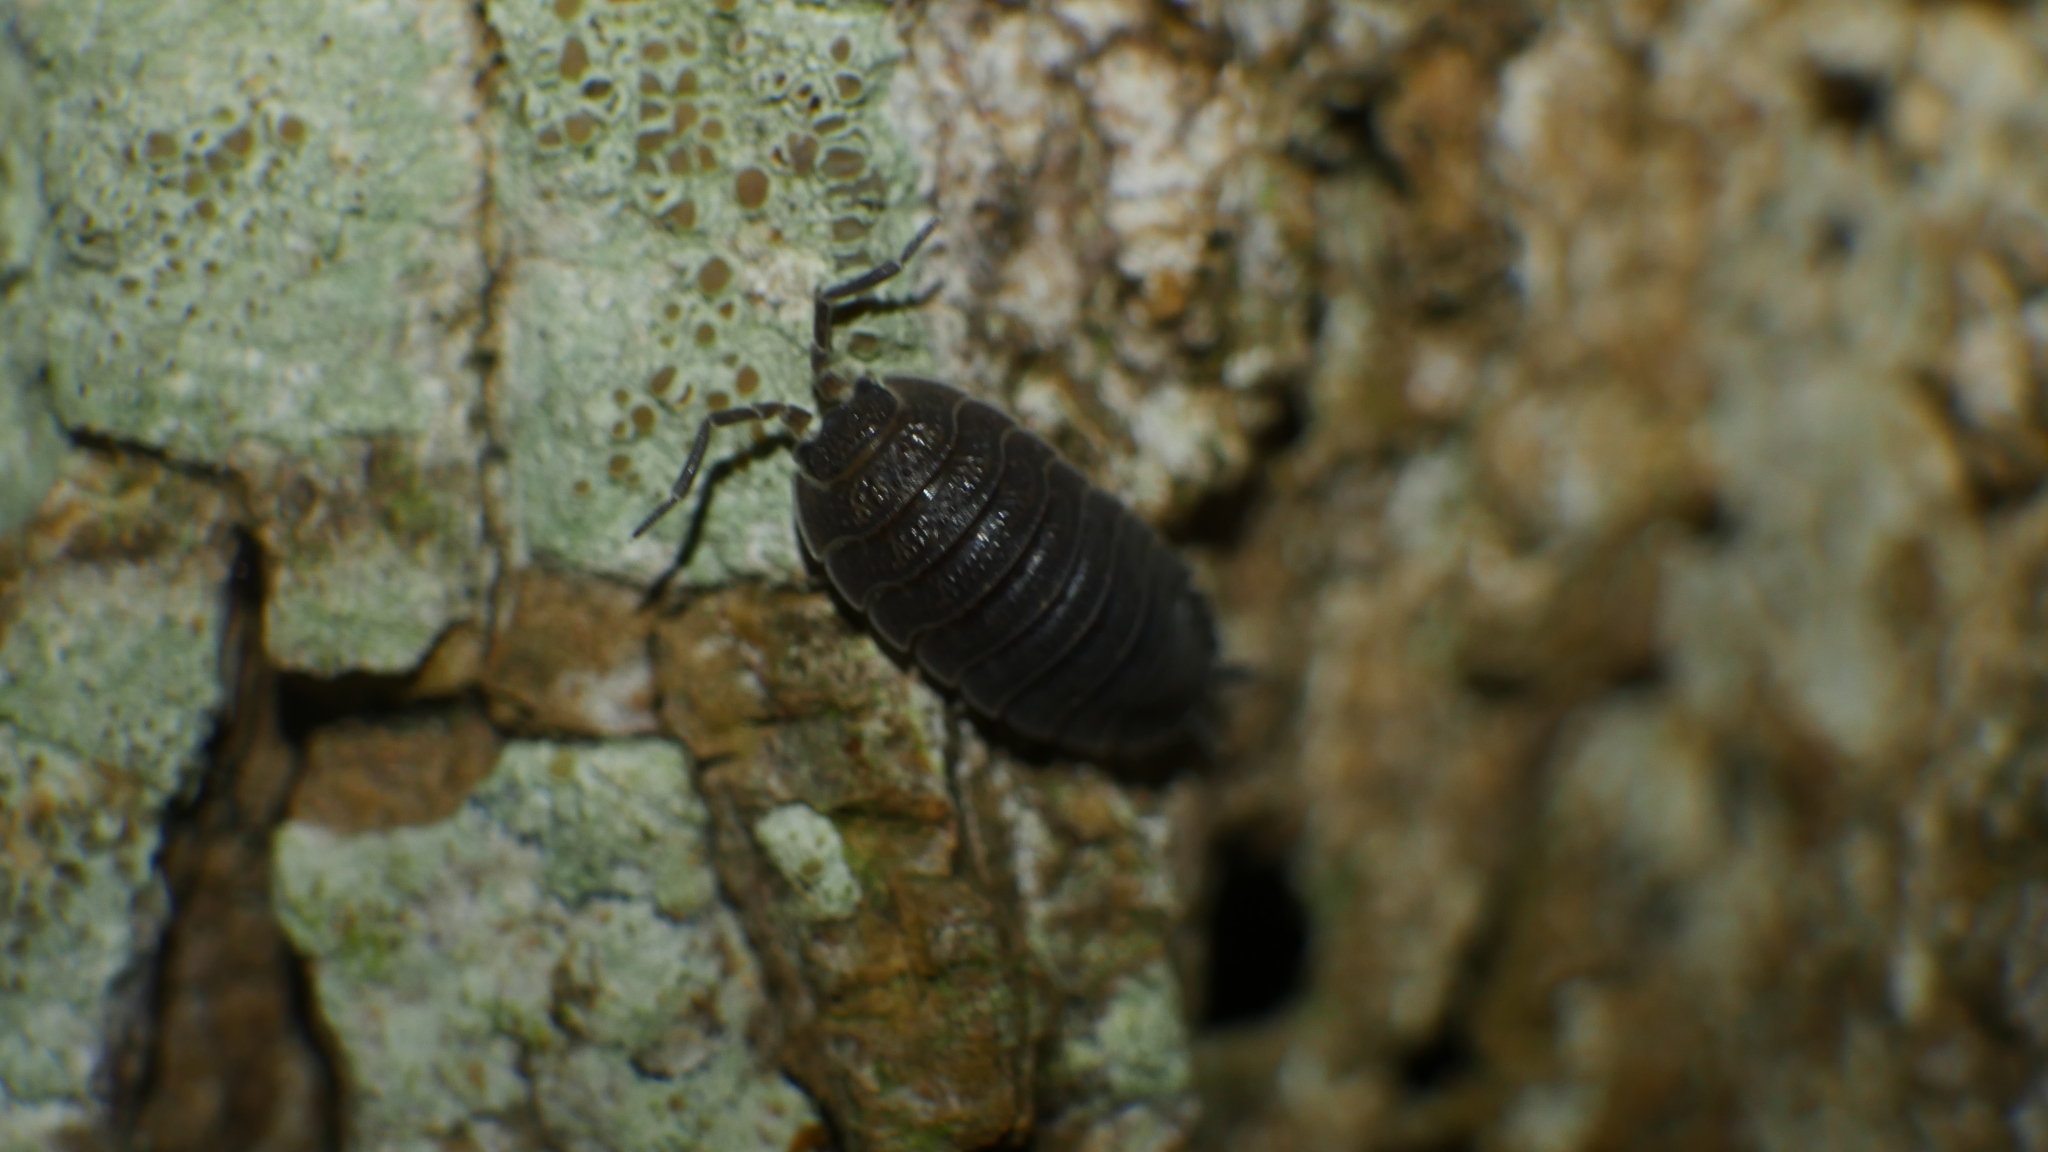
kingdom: Animalia
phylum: Arthropoda
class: Malacostraca
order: Isopoda
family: Porcellionidae
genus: Porcellio
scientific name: Porcellio scaber
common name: Common rough woodlouse
